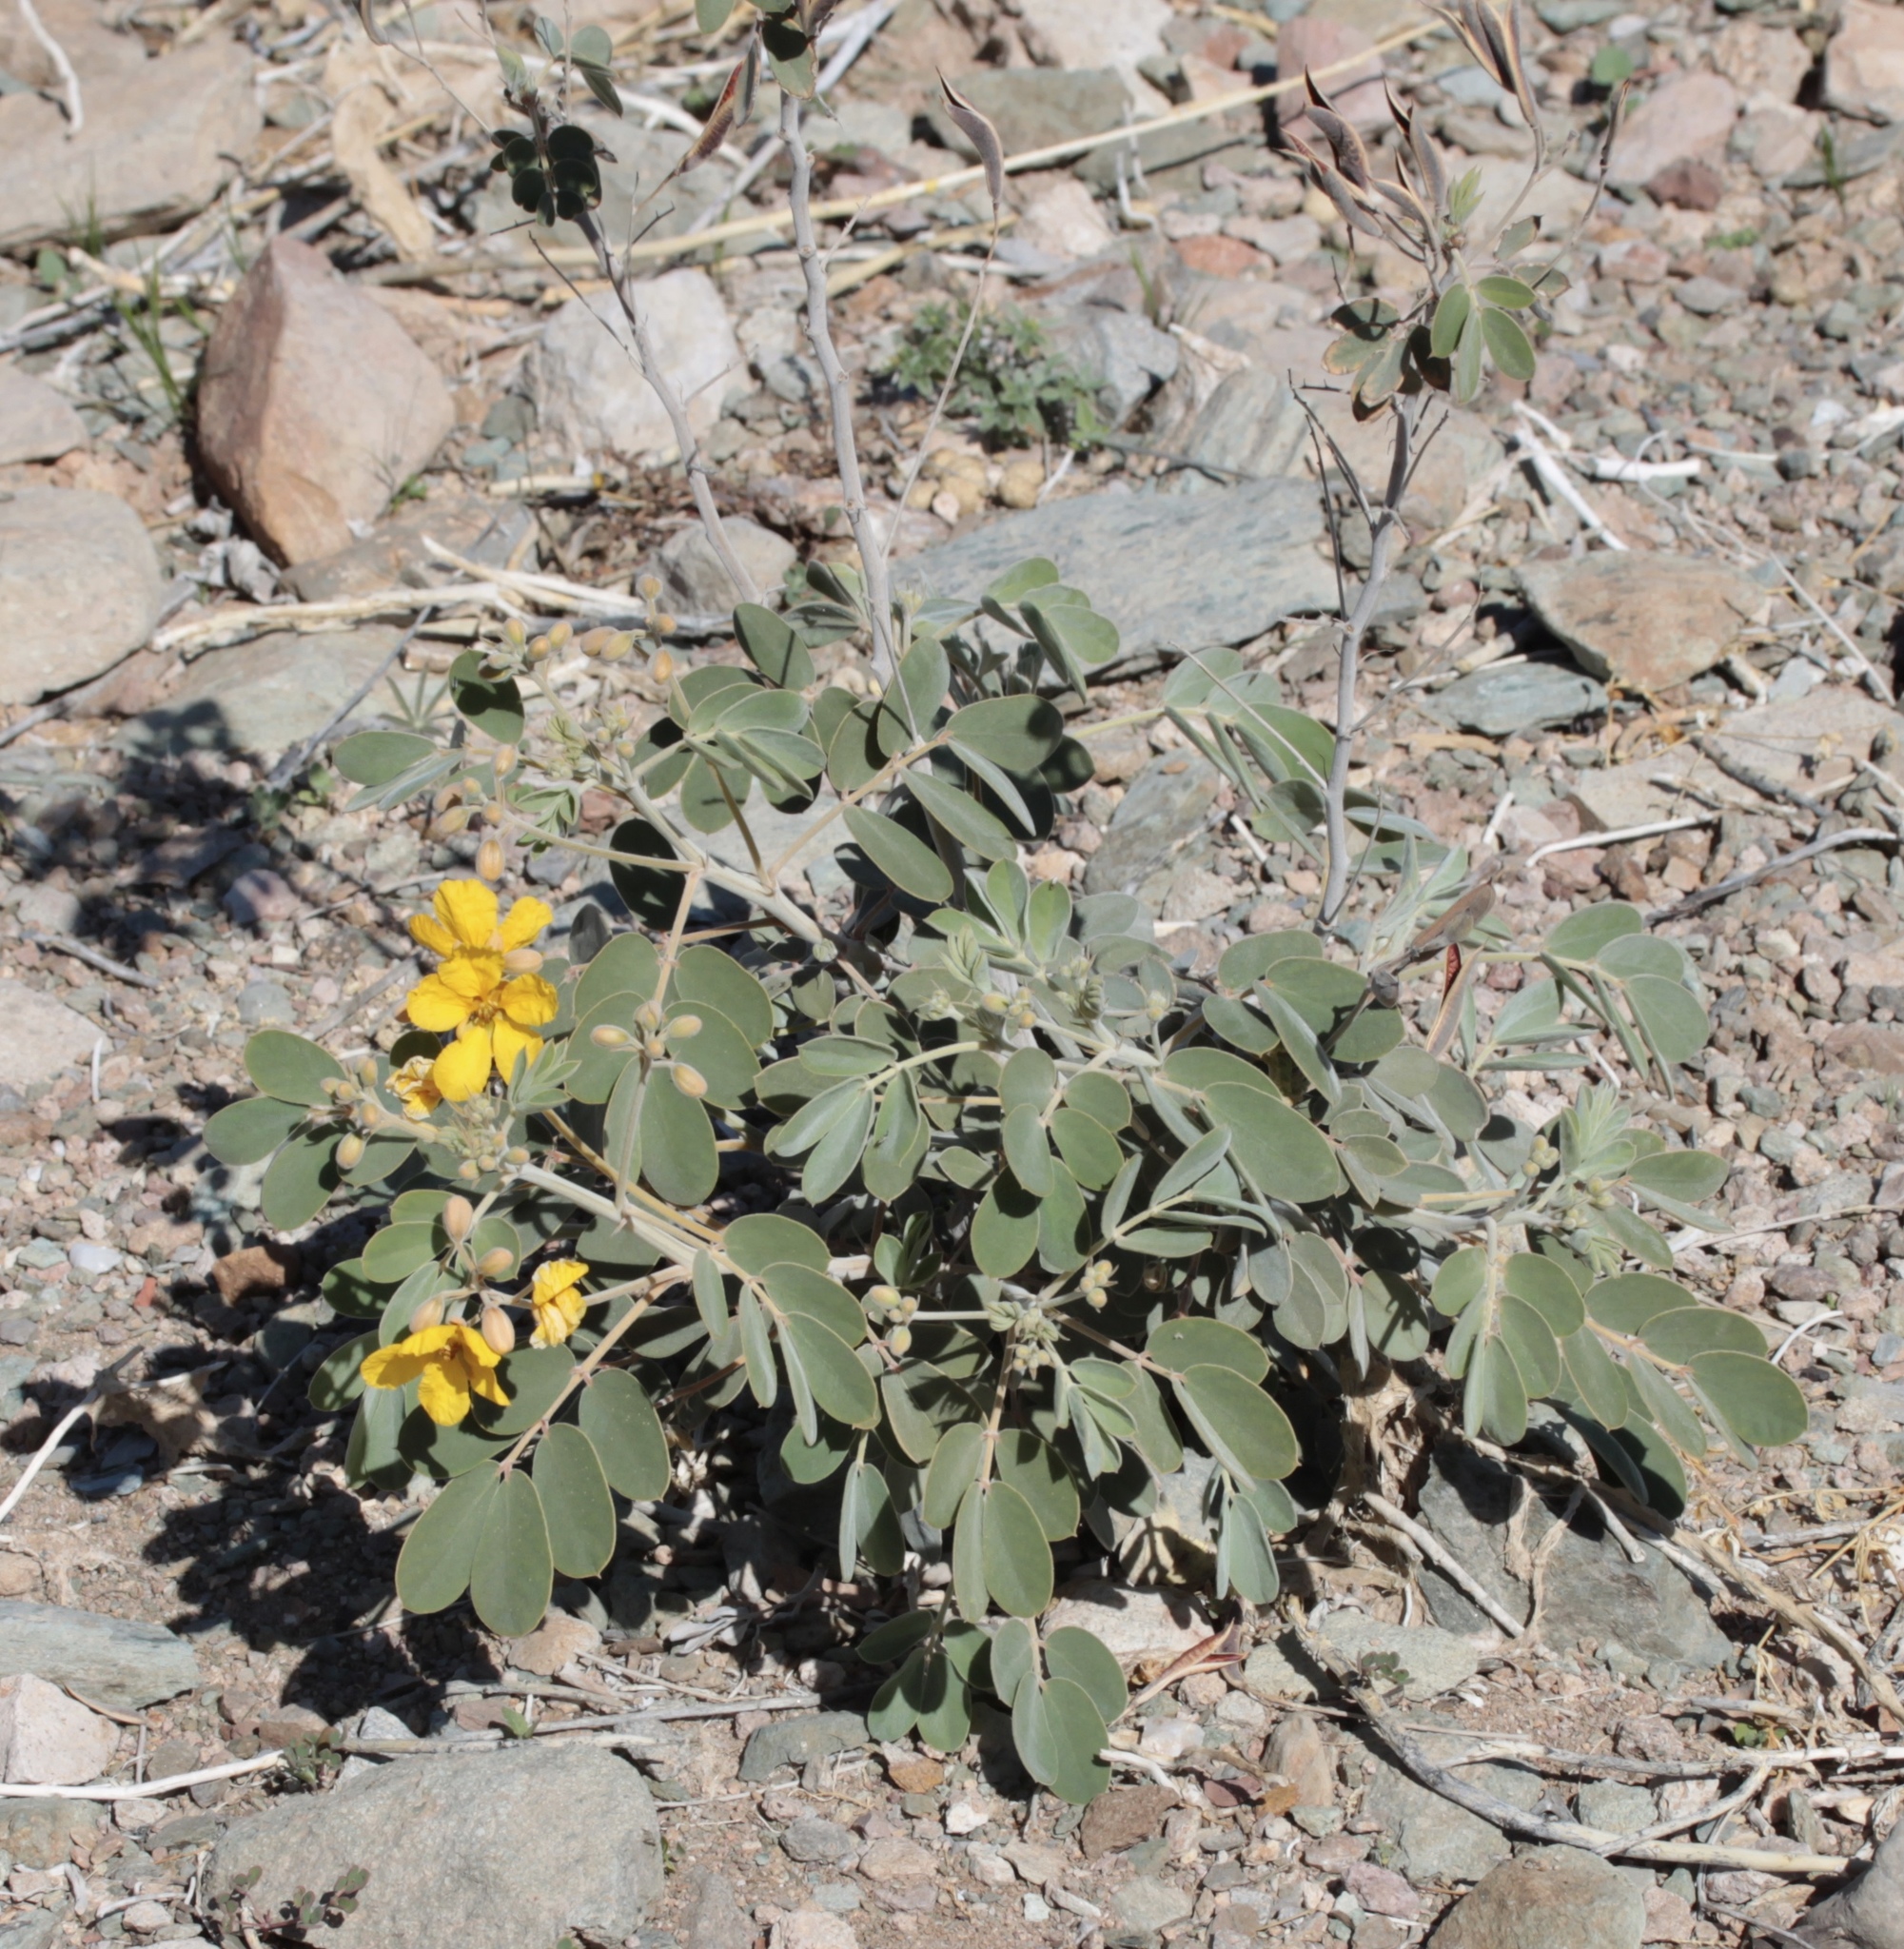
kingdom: Plantae
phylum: Tracheophyta
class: Magnoliopsida
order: Fabales
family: Fabaceae
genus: Senna
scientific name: Senna covesii
